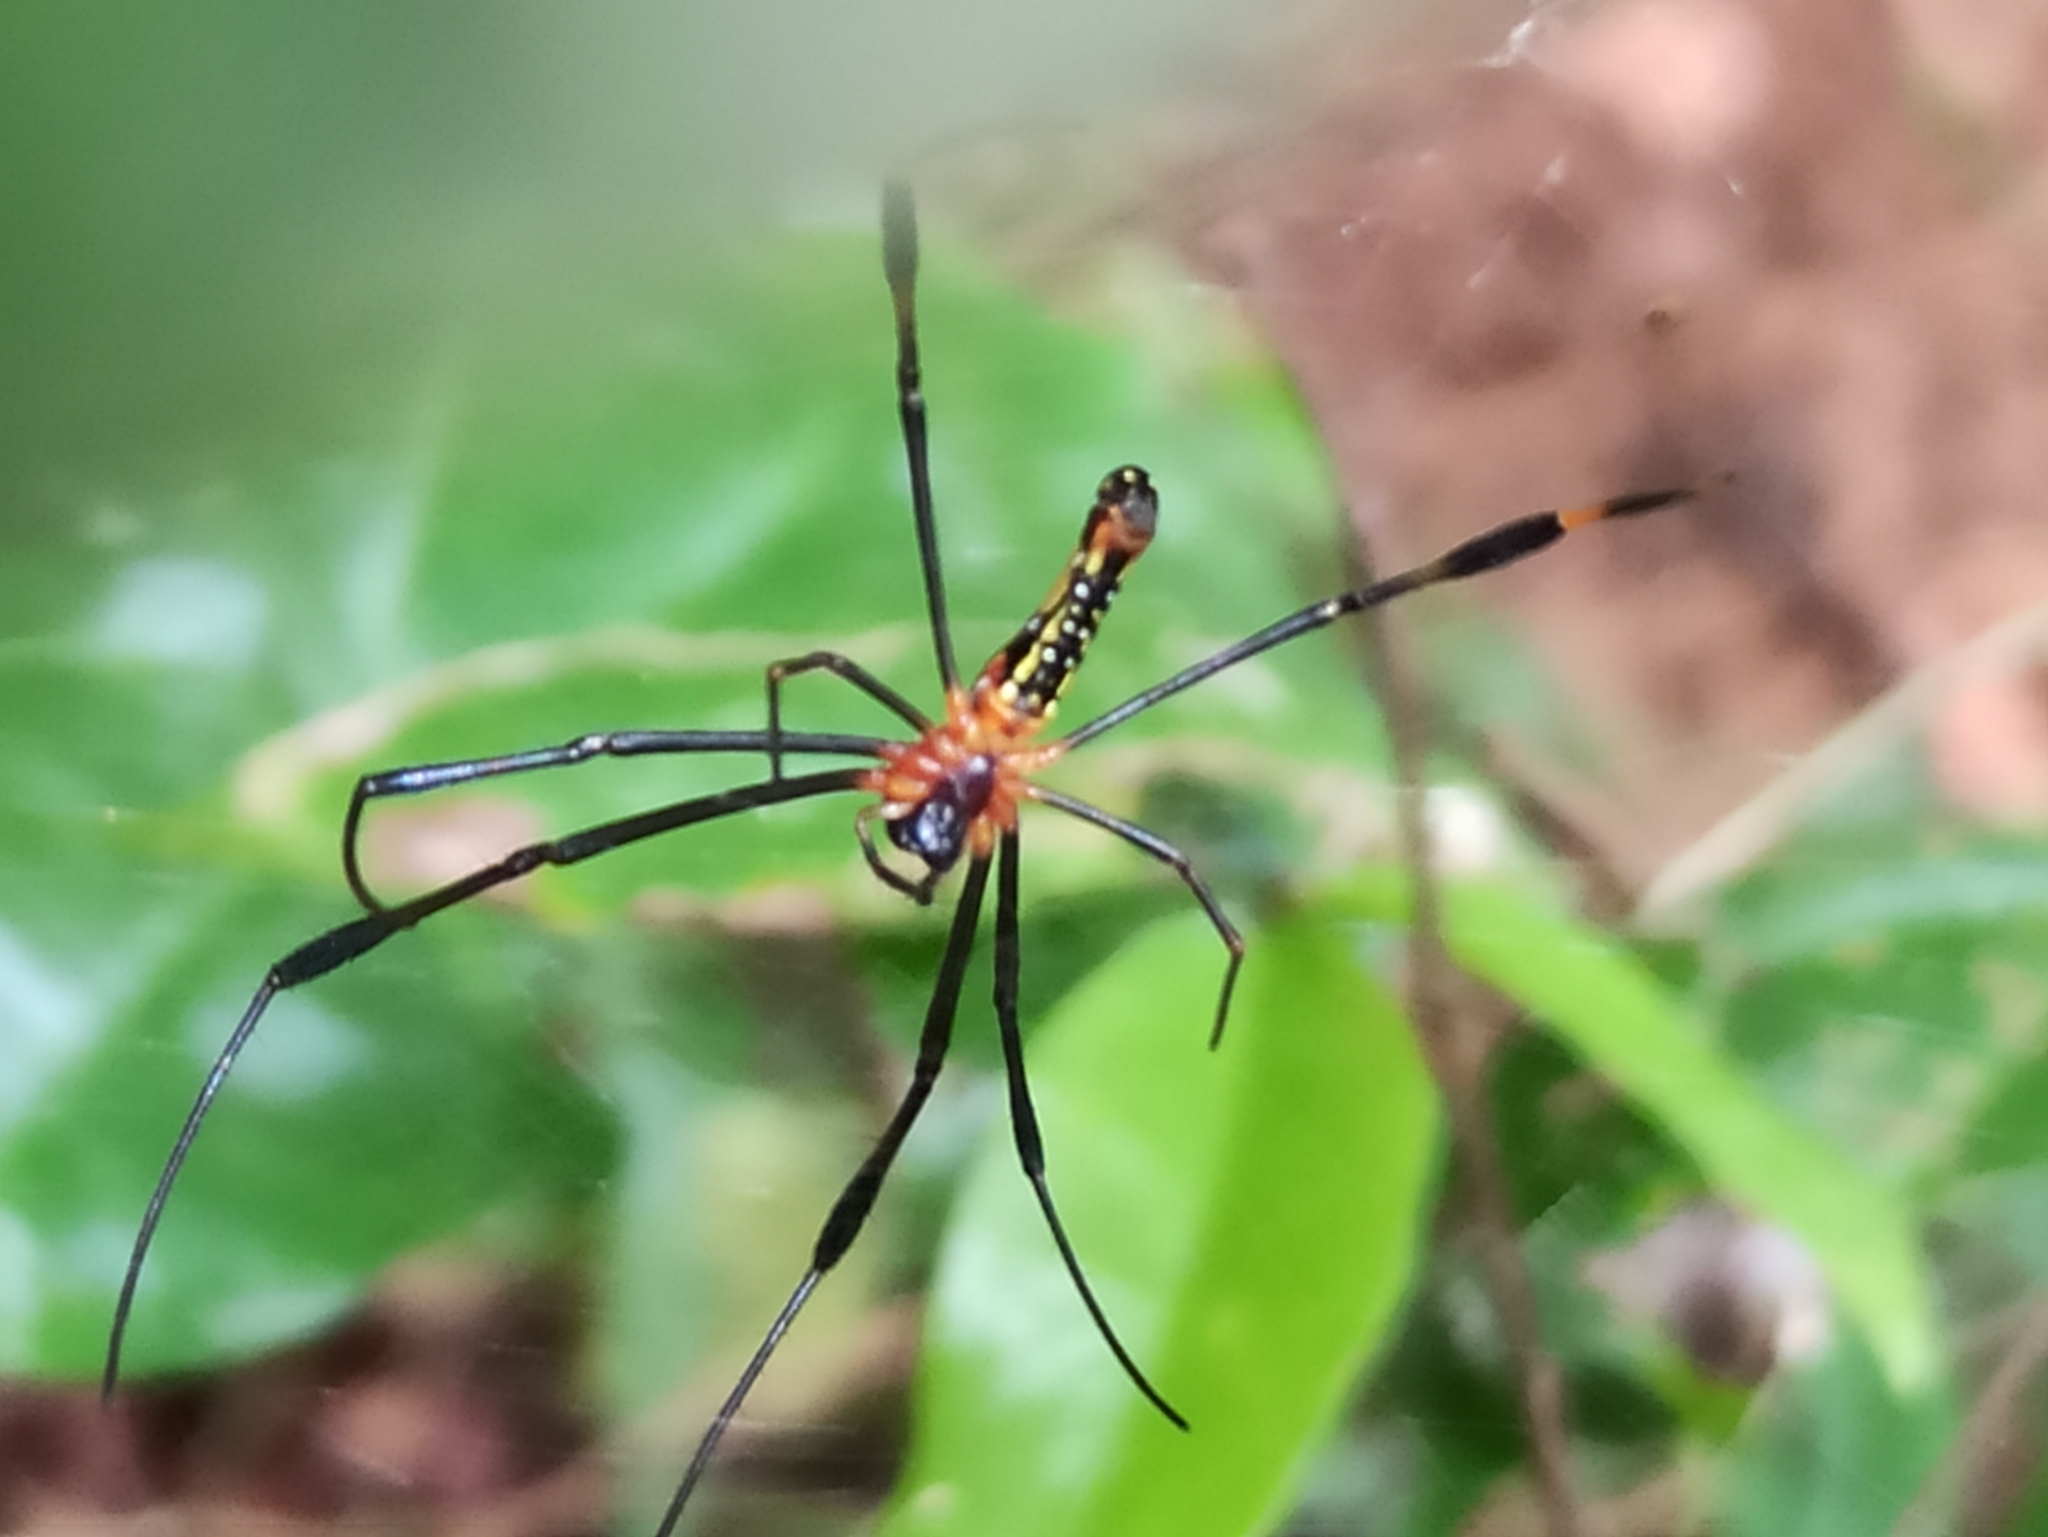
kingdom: Animalia
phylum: Arthropoda
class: Arachnida
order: Araneae
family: Araneidae
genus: Nephila
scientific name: Nephila pilipes
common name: Giant golden orb weaver
